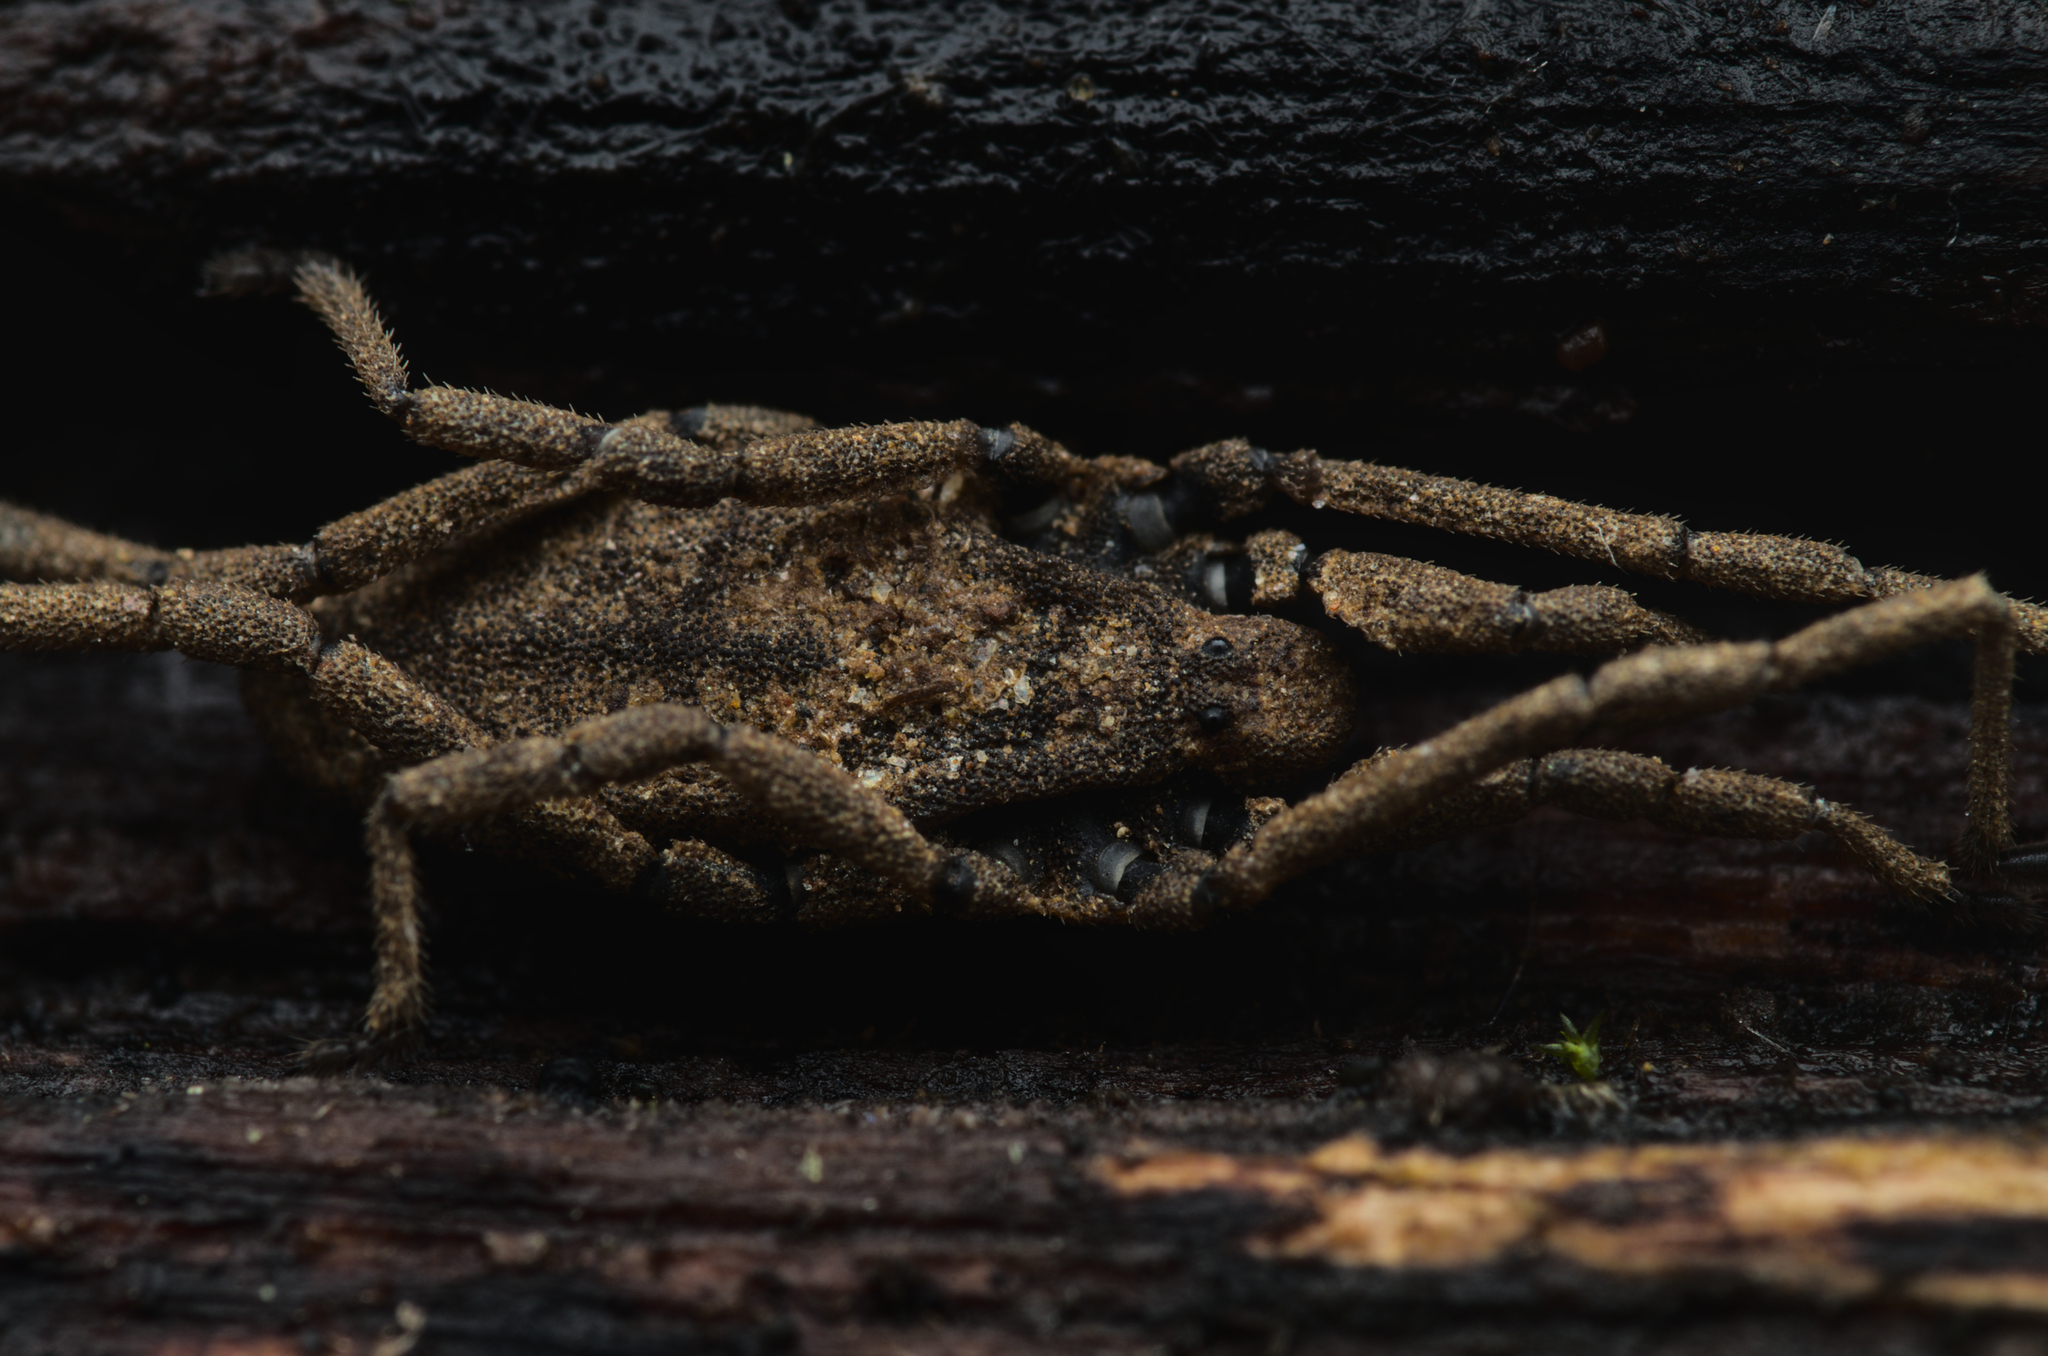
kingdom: Animalia
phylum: Arthropoda
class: Arachnida
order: Opiliones
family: Trogulidae
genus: Trogulus
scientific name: Trogulus nepaeformis
